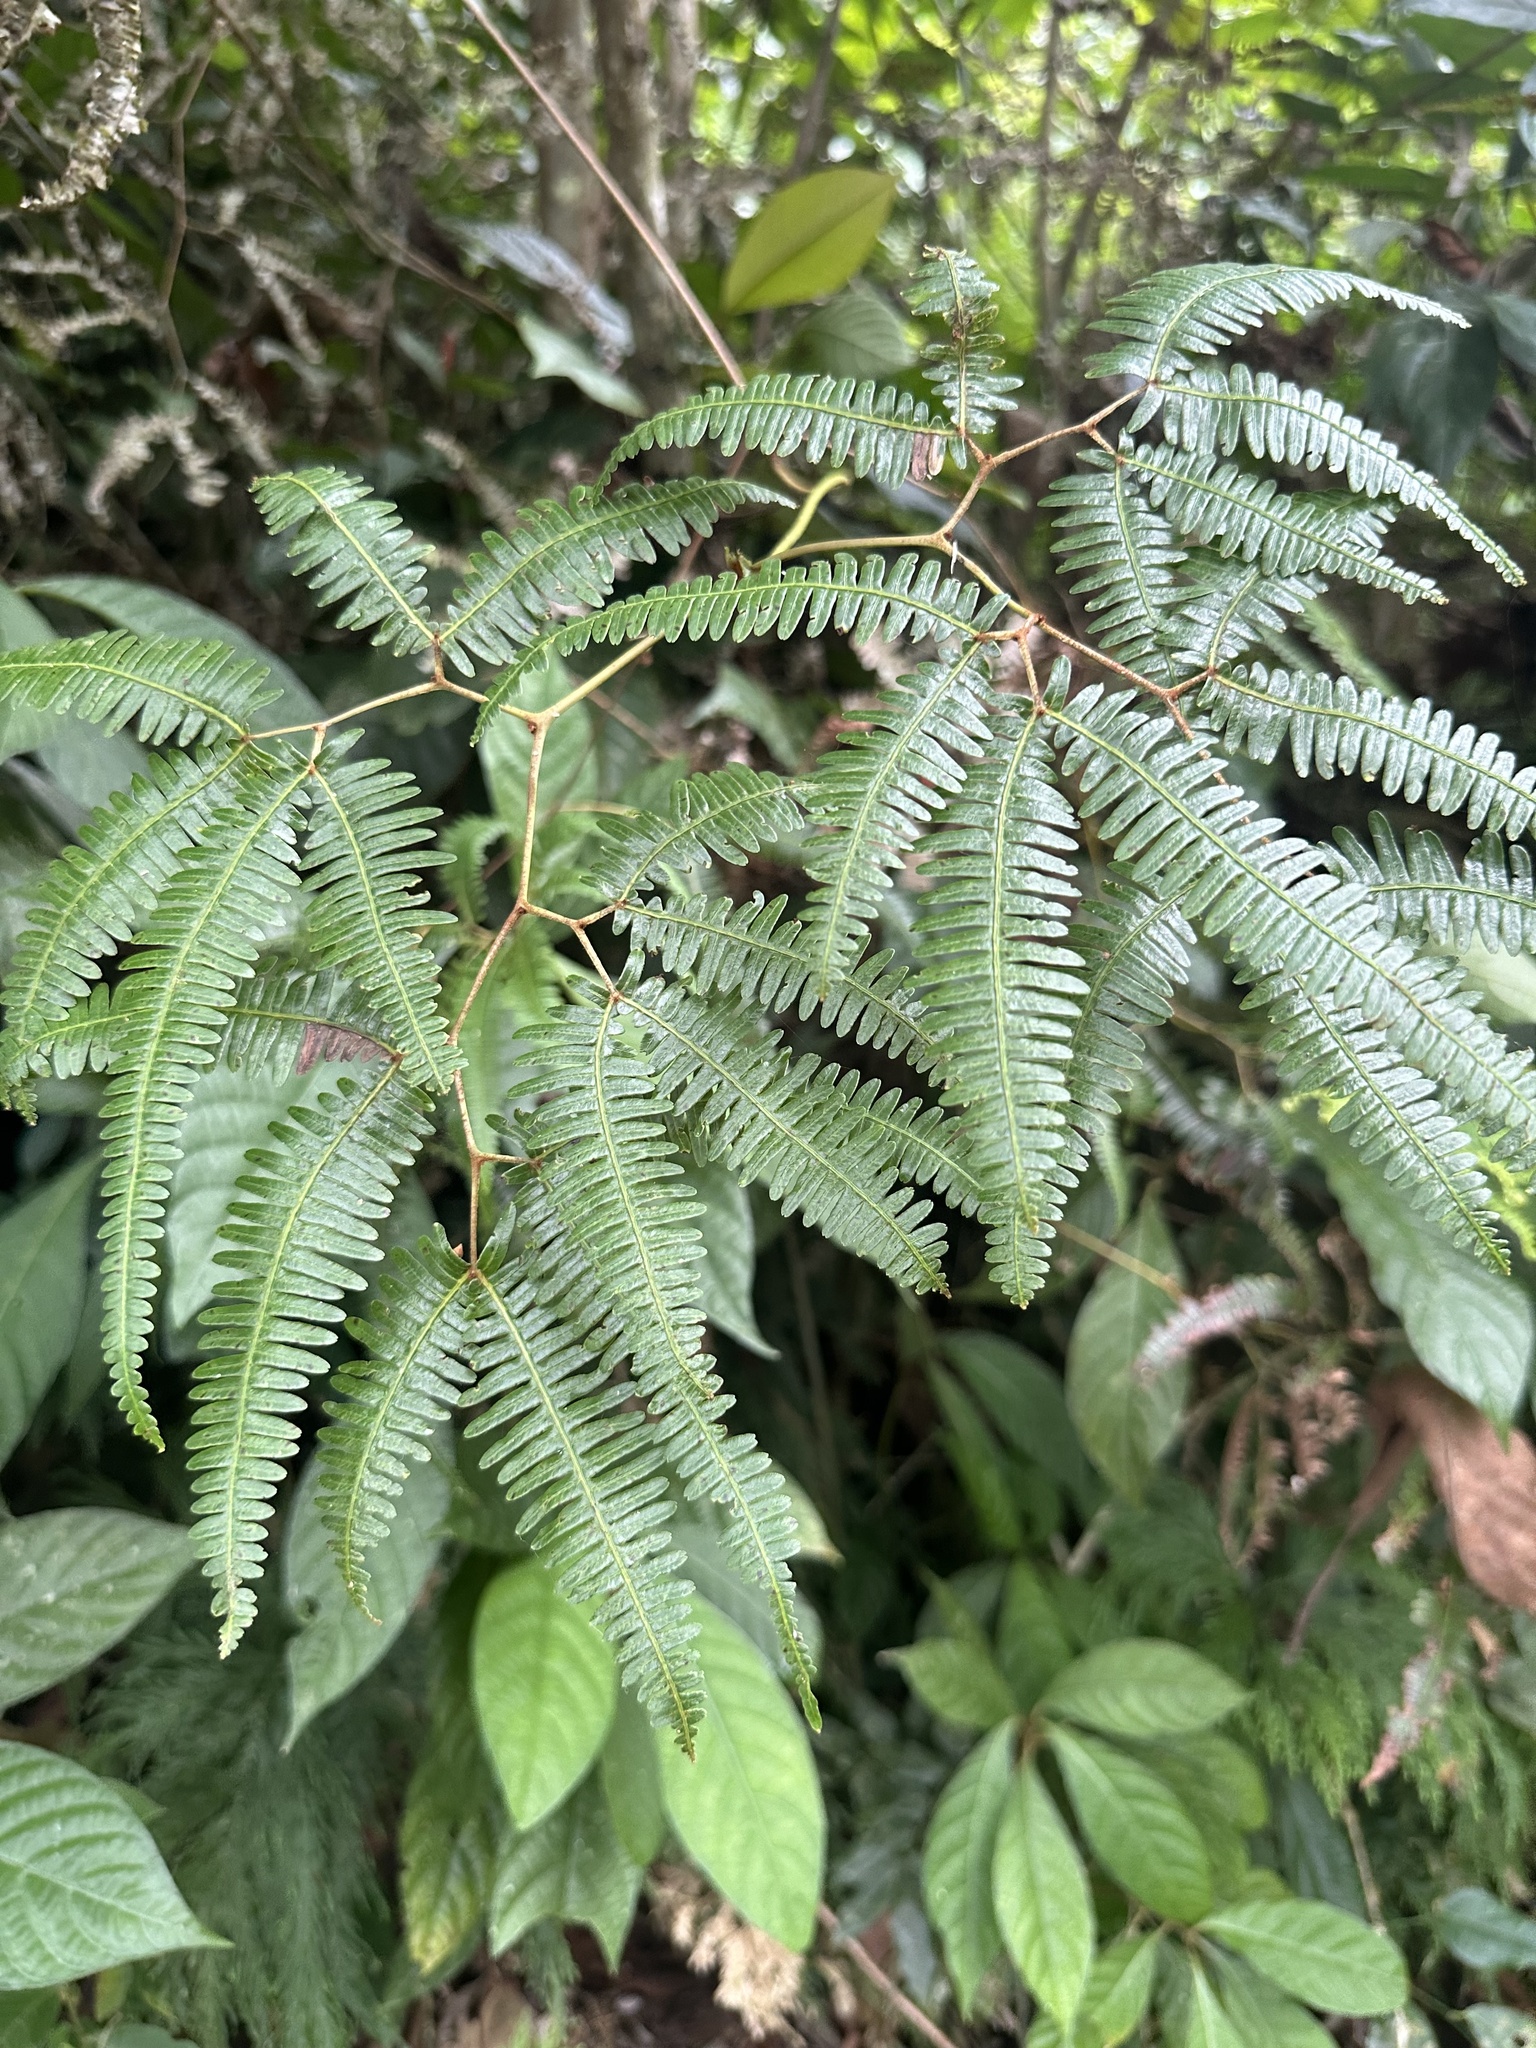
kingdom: Plantae
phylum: Tracheophyta
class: Polypodiopsida
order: Gleicheniales
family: Gleicheniaceae
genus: Gleichenella
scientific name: Gleichenella pectinata
